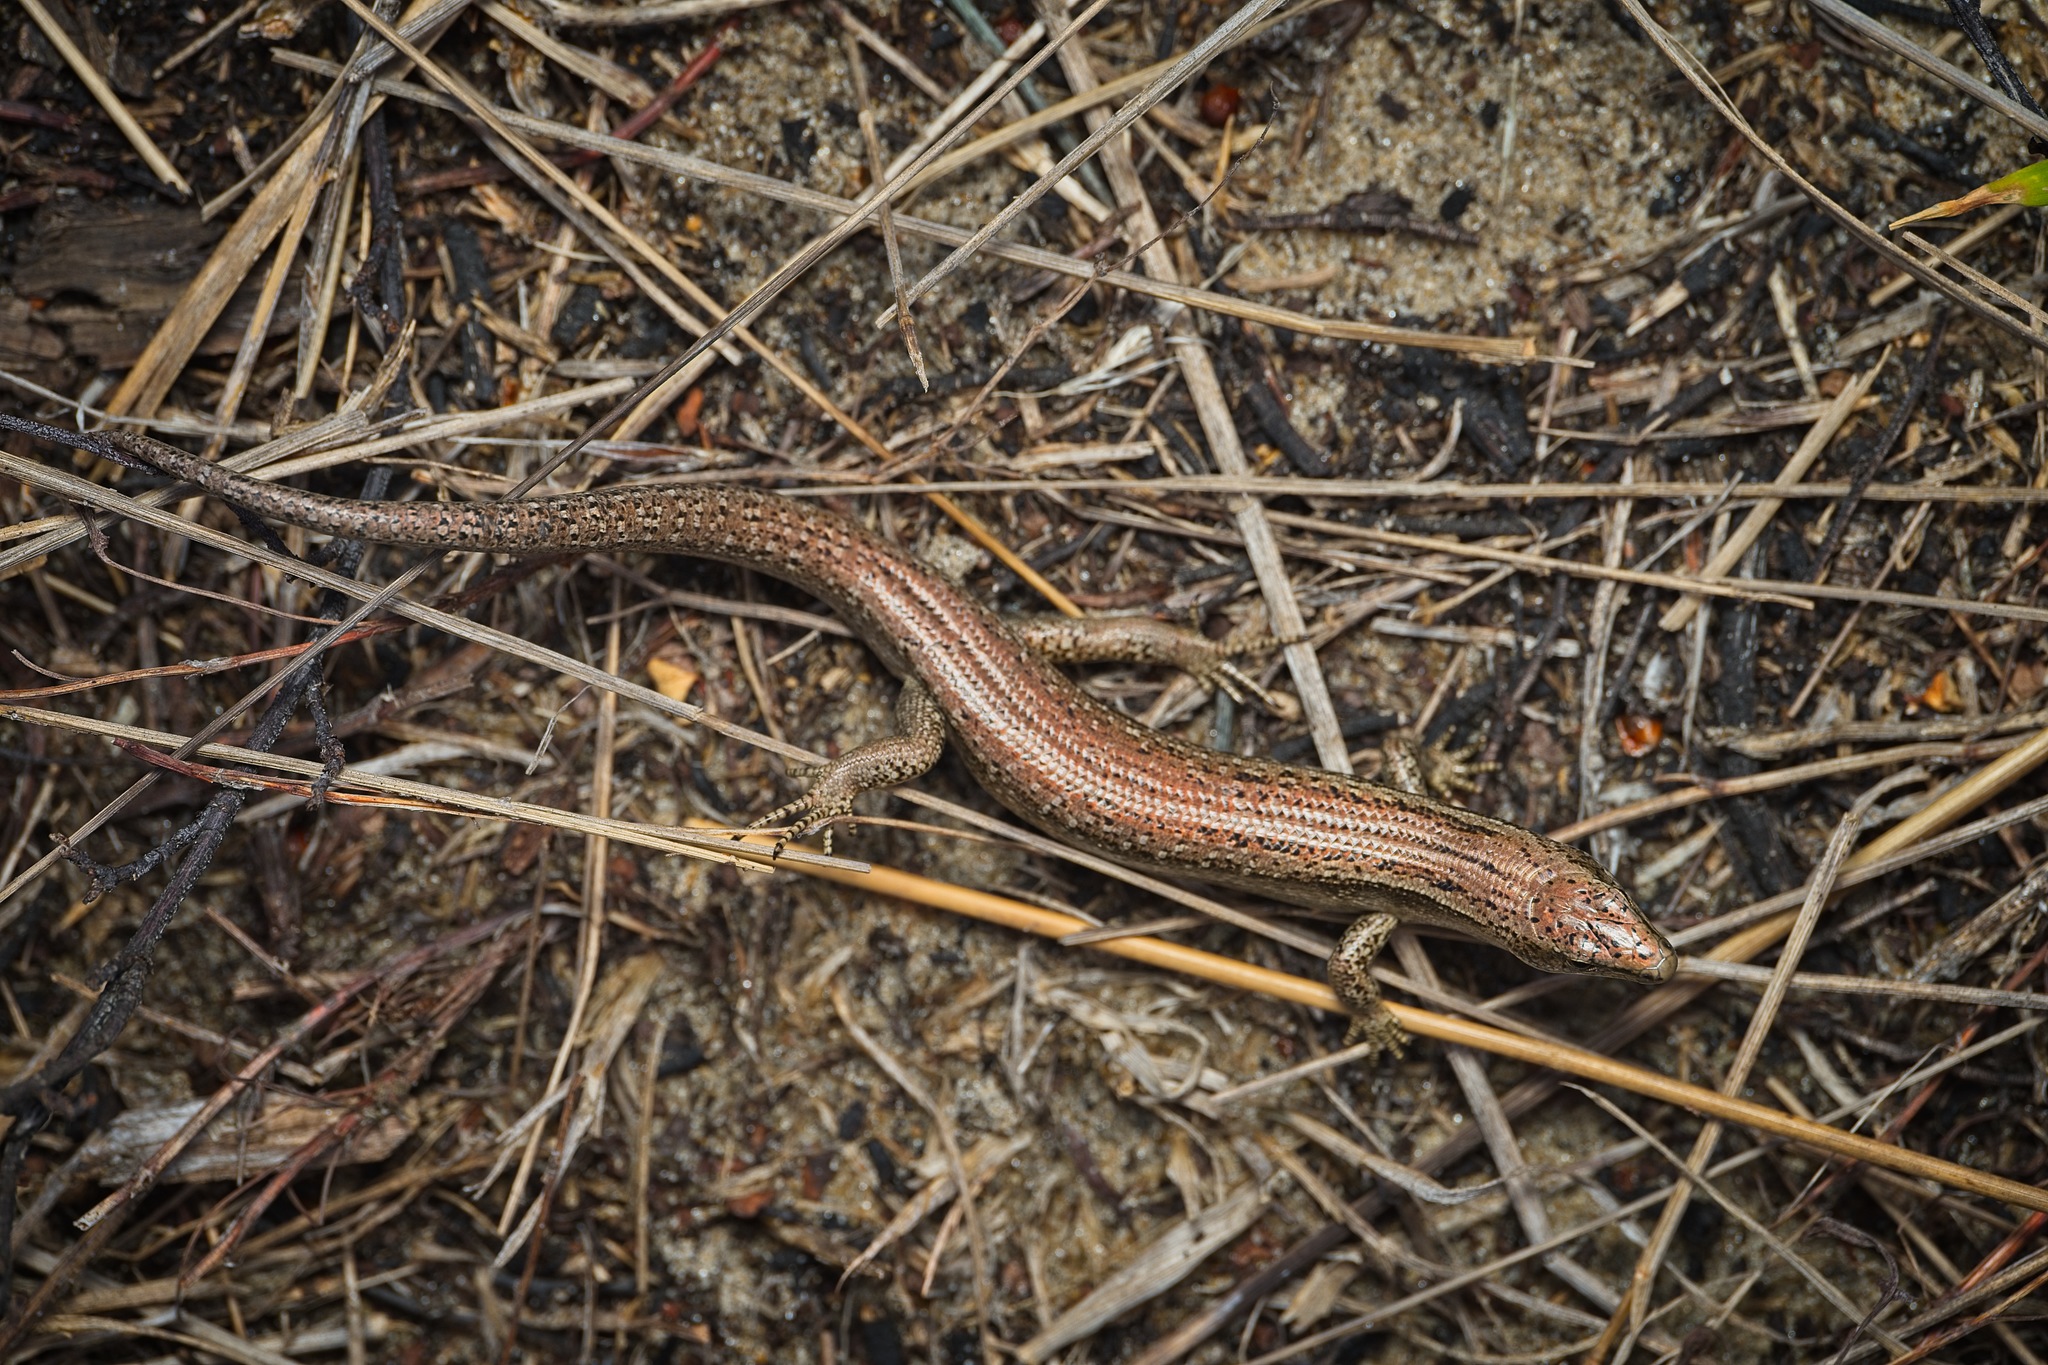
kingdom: Animalia
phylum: Chordata
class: Squamata
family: Scincidae
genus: Oligosoma
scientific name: Oligosoma smithi
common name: Shore skink
